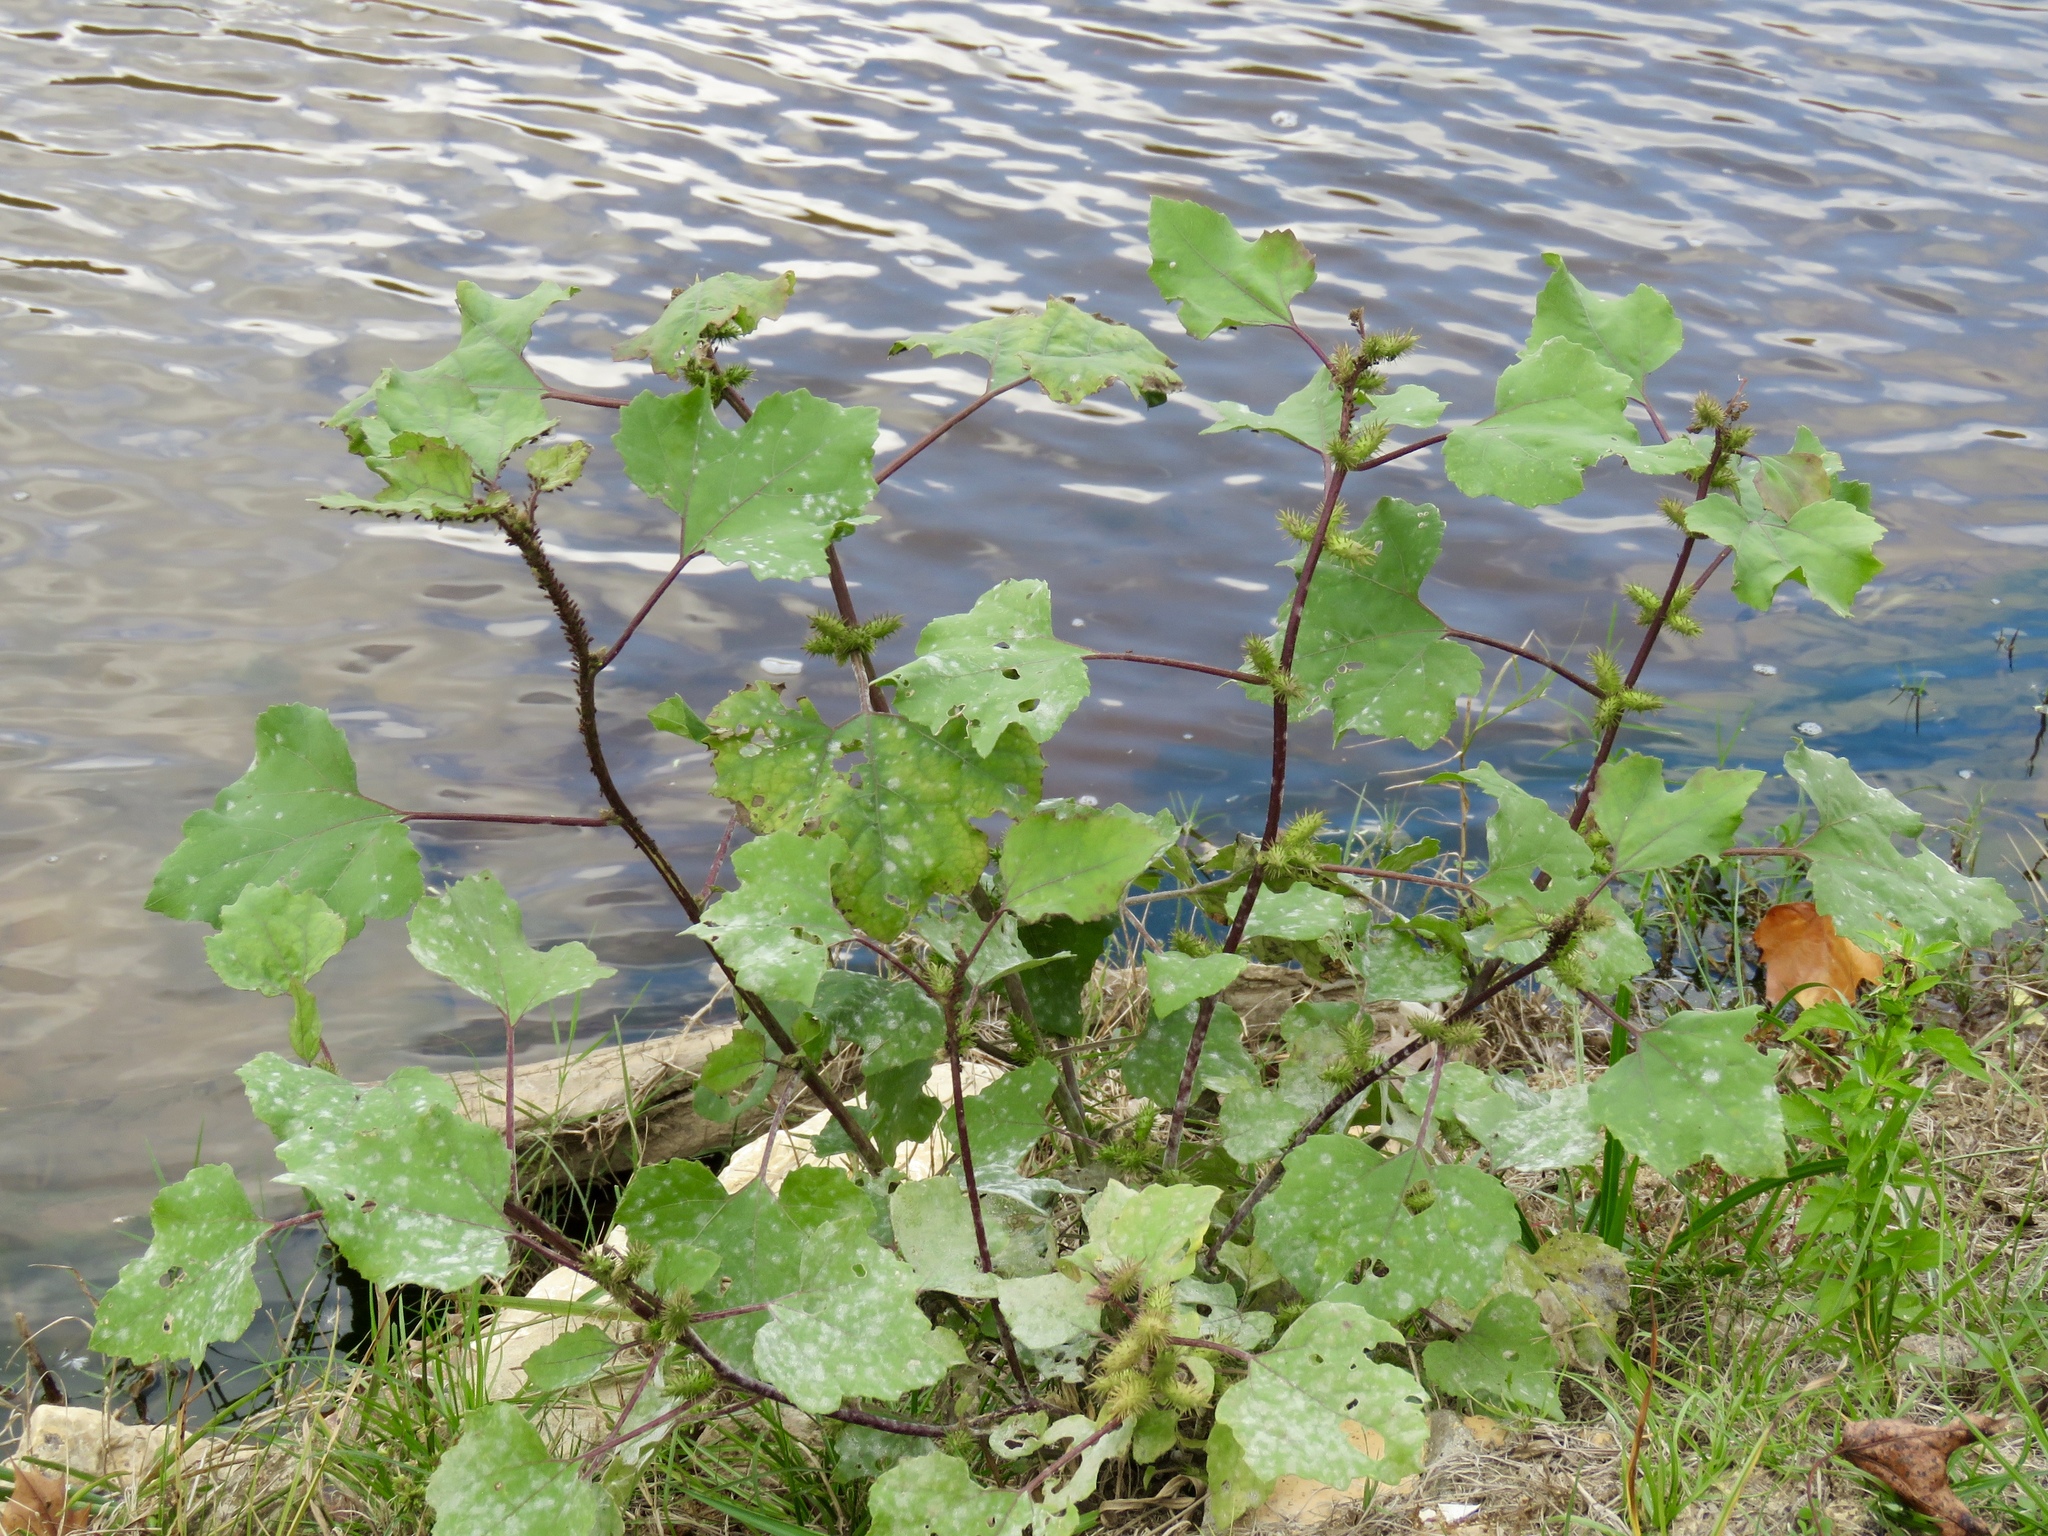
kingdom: Plantae
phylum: Tracheophyta
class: Magnoliopsida
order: Asterales
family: Asteraceae
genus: Xanthium
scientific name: Xanthium strumarium
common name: Rough cocklebur
